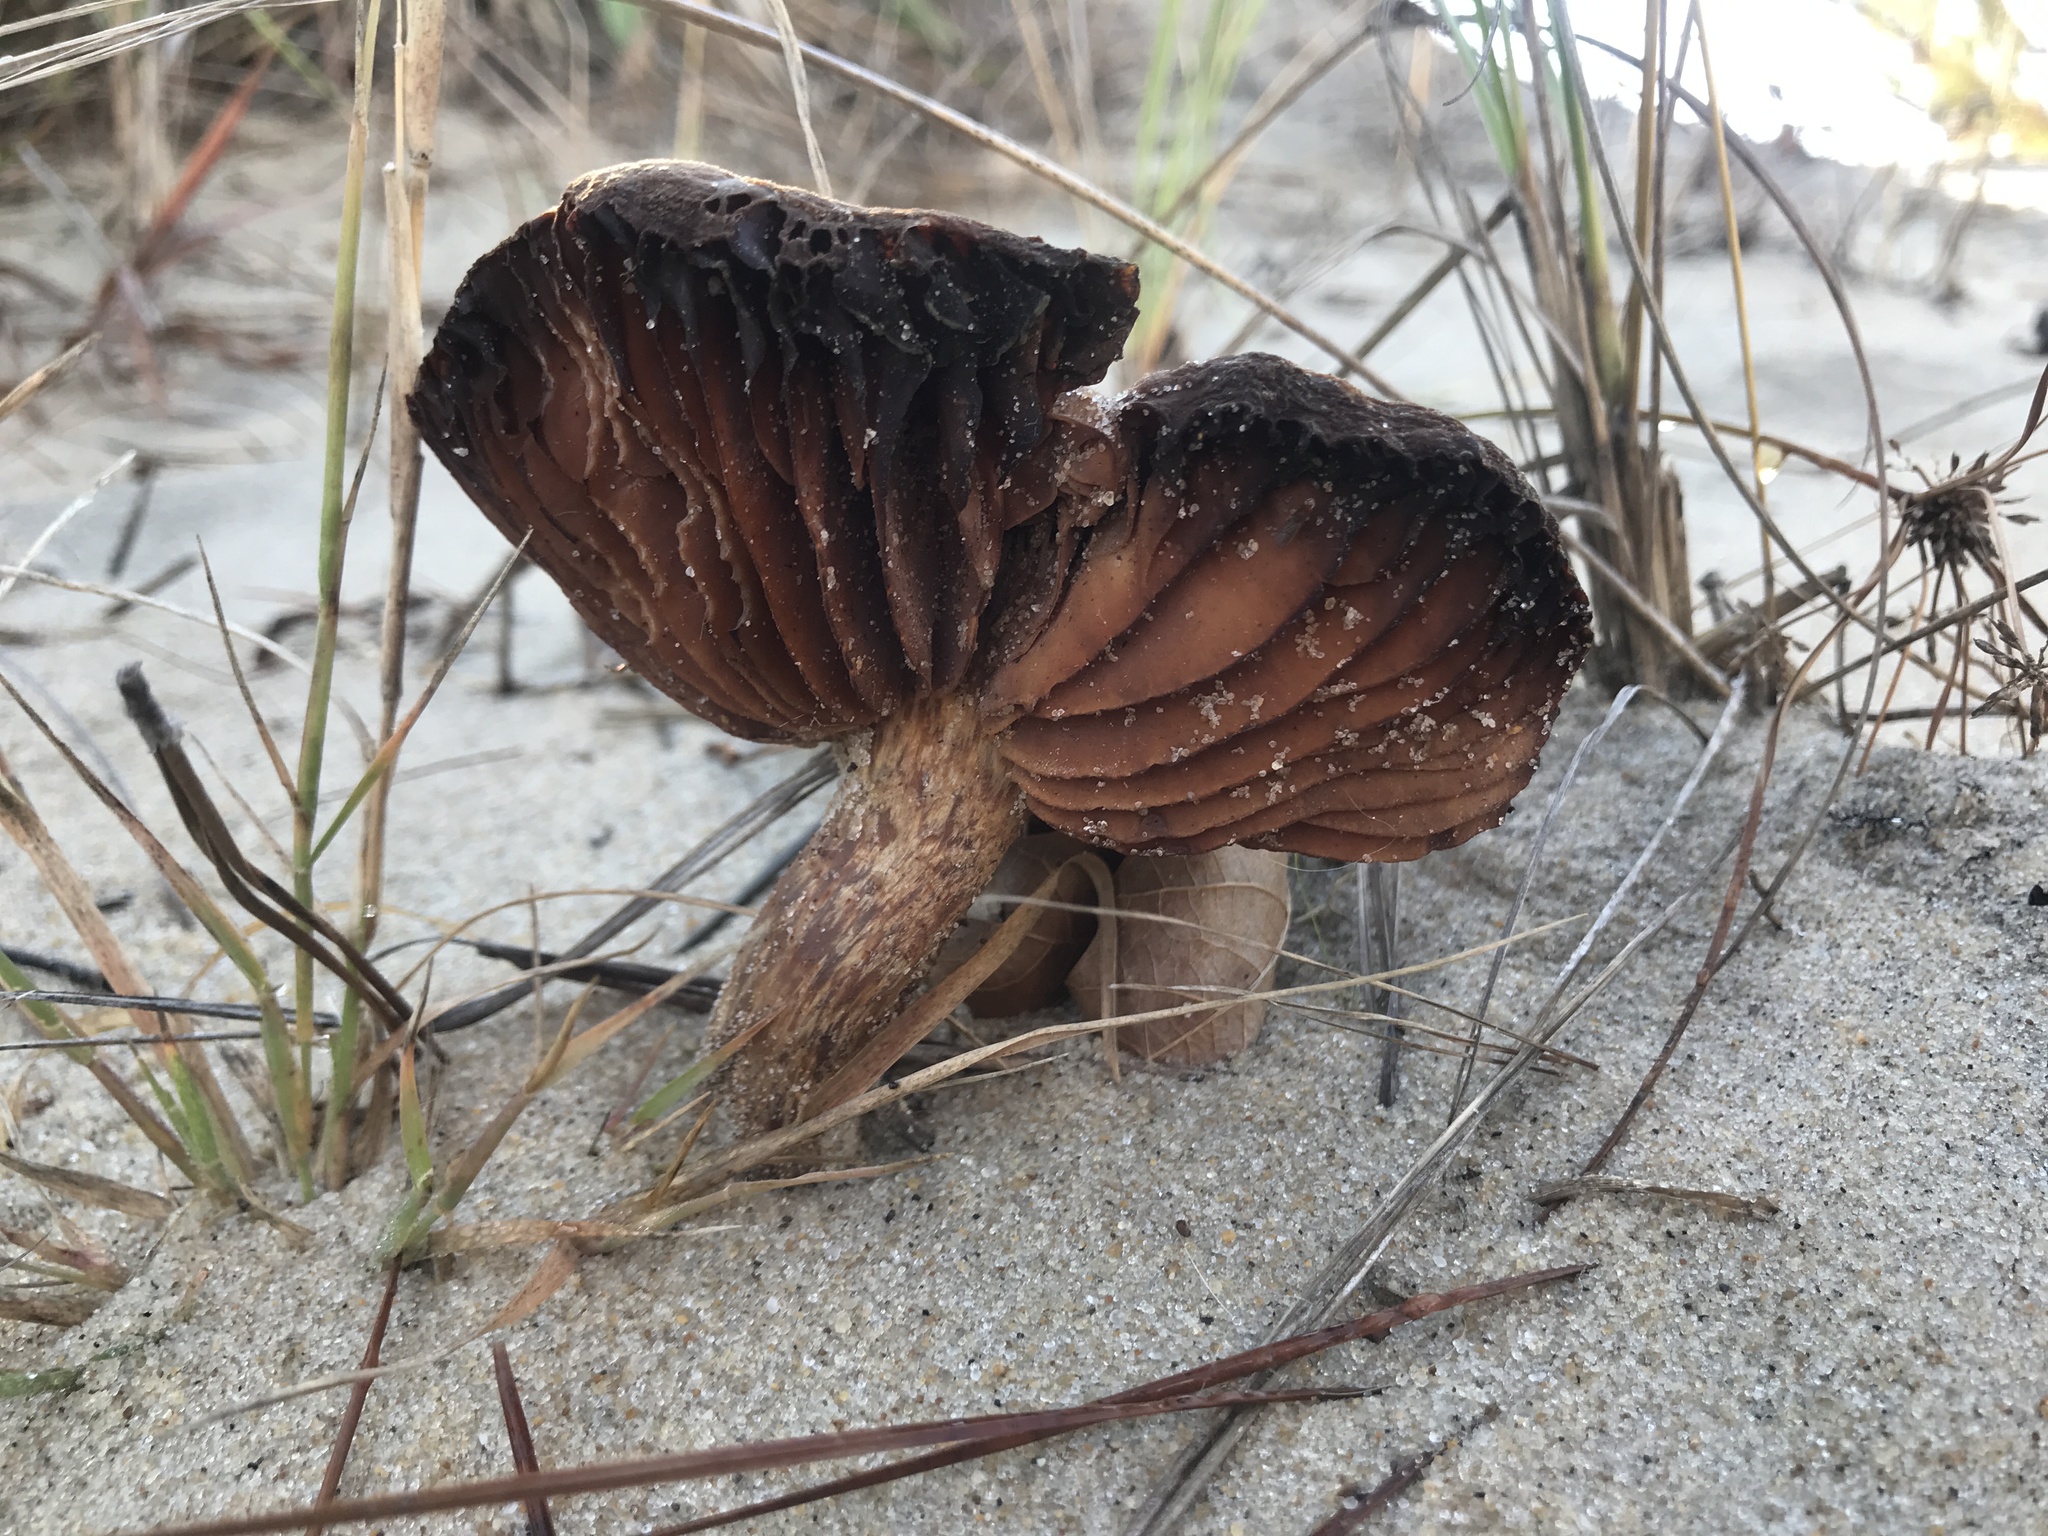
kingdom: Fungi
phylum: Basidiomycota
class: Agaricomycetes
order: Agaricales
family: Hydnangiaceae
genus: Laccaria
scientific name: Laccaria trullissata
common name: Sandy laccaria
